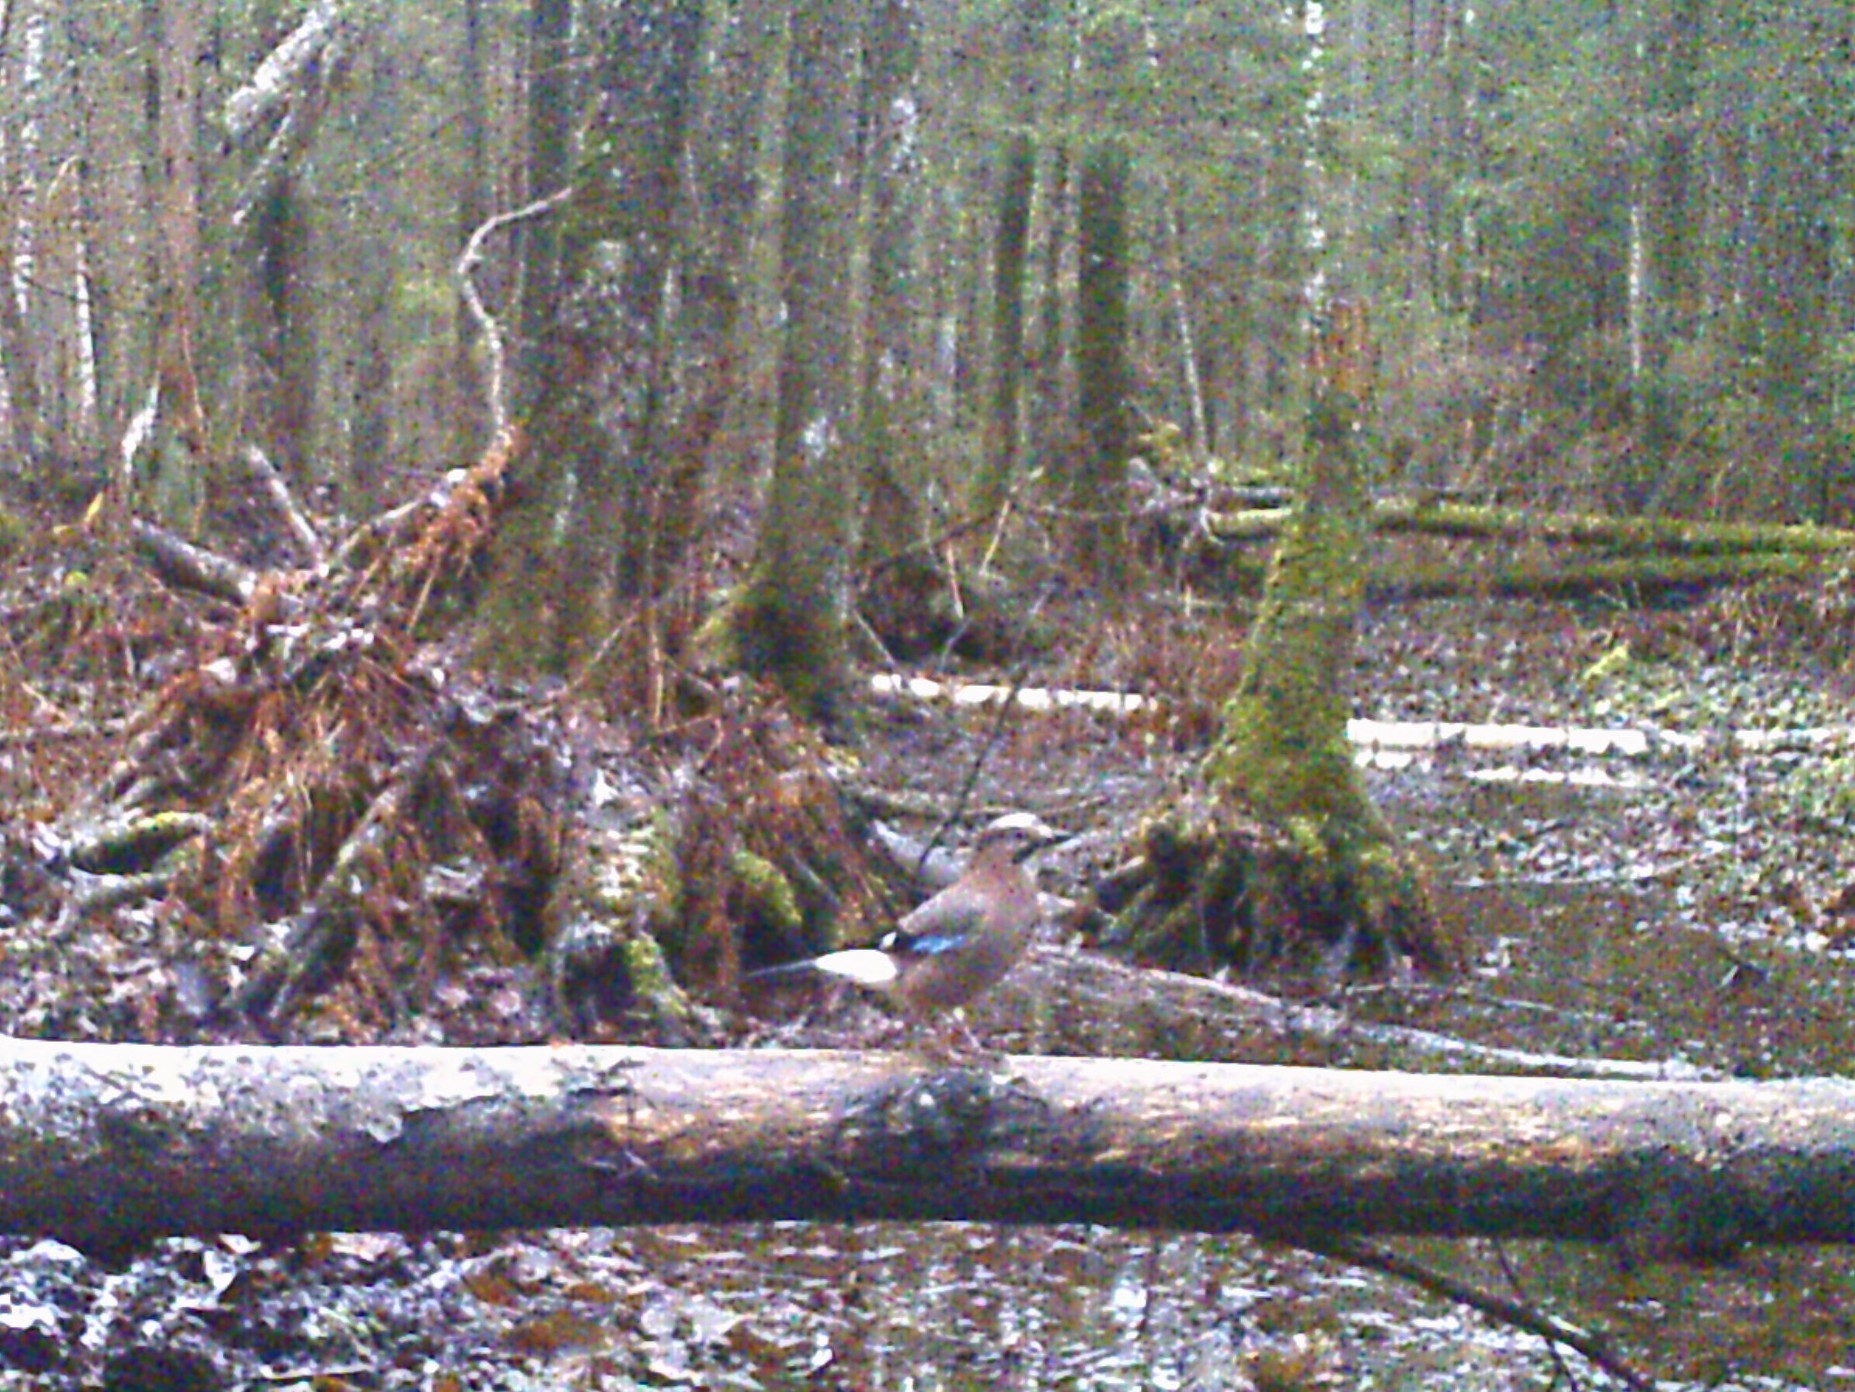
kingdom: Animalia
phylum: Chordata
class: Aves
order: Passeriformes
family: Corvidae
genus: Garrulus
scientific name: Garrulus glandarius
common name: Eurasian jay
